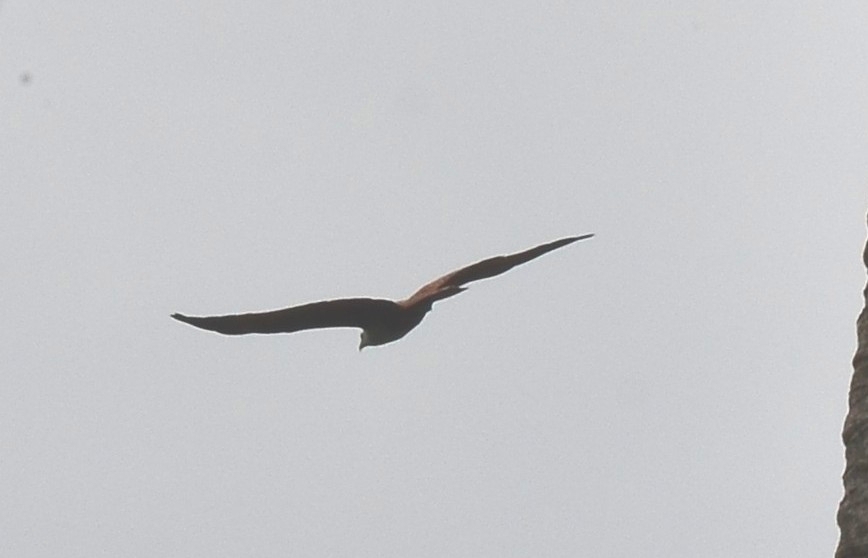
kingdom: Animalia
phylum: Chordata
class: Aves
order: Accipitriformes
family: Accipitridae
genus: Haliastur
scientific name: Haliastur indus
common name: Brahminy kite
